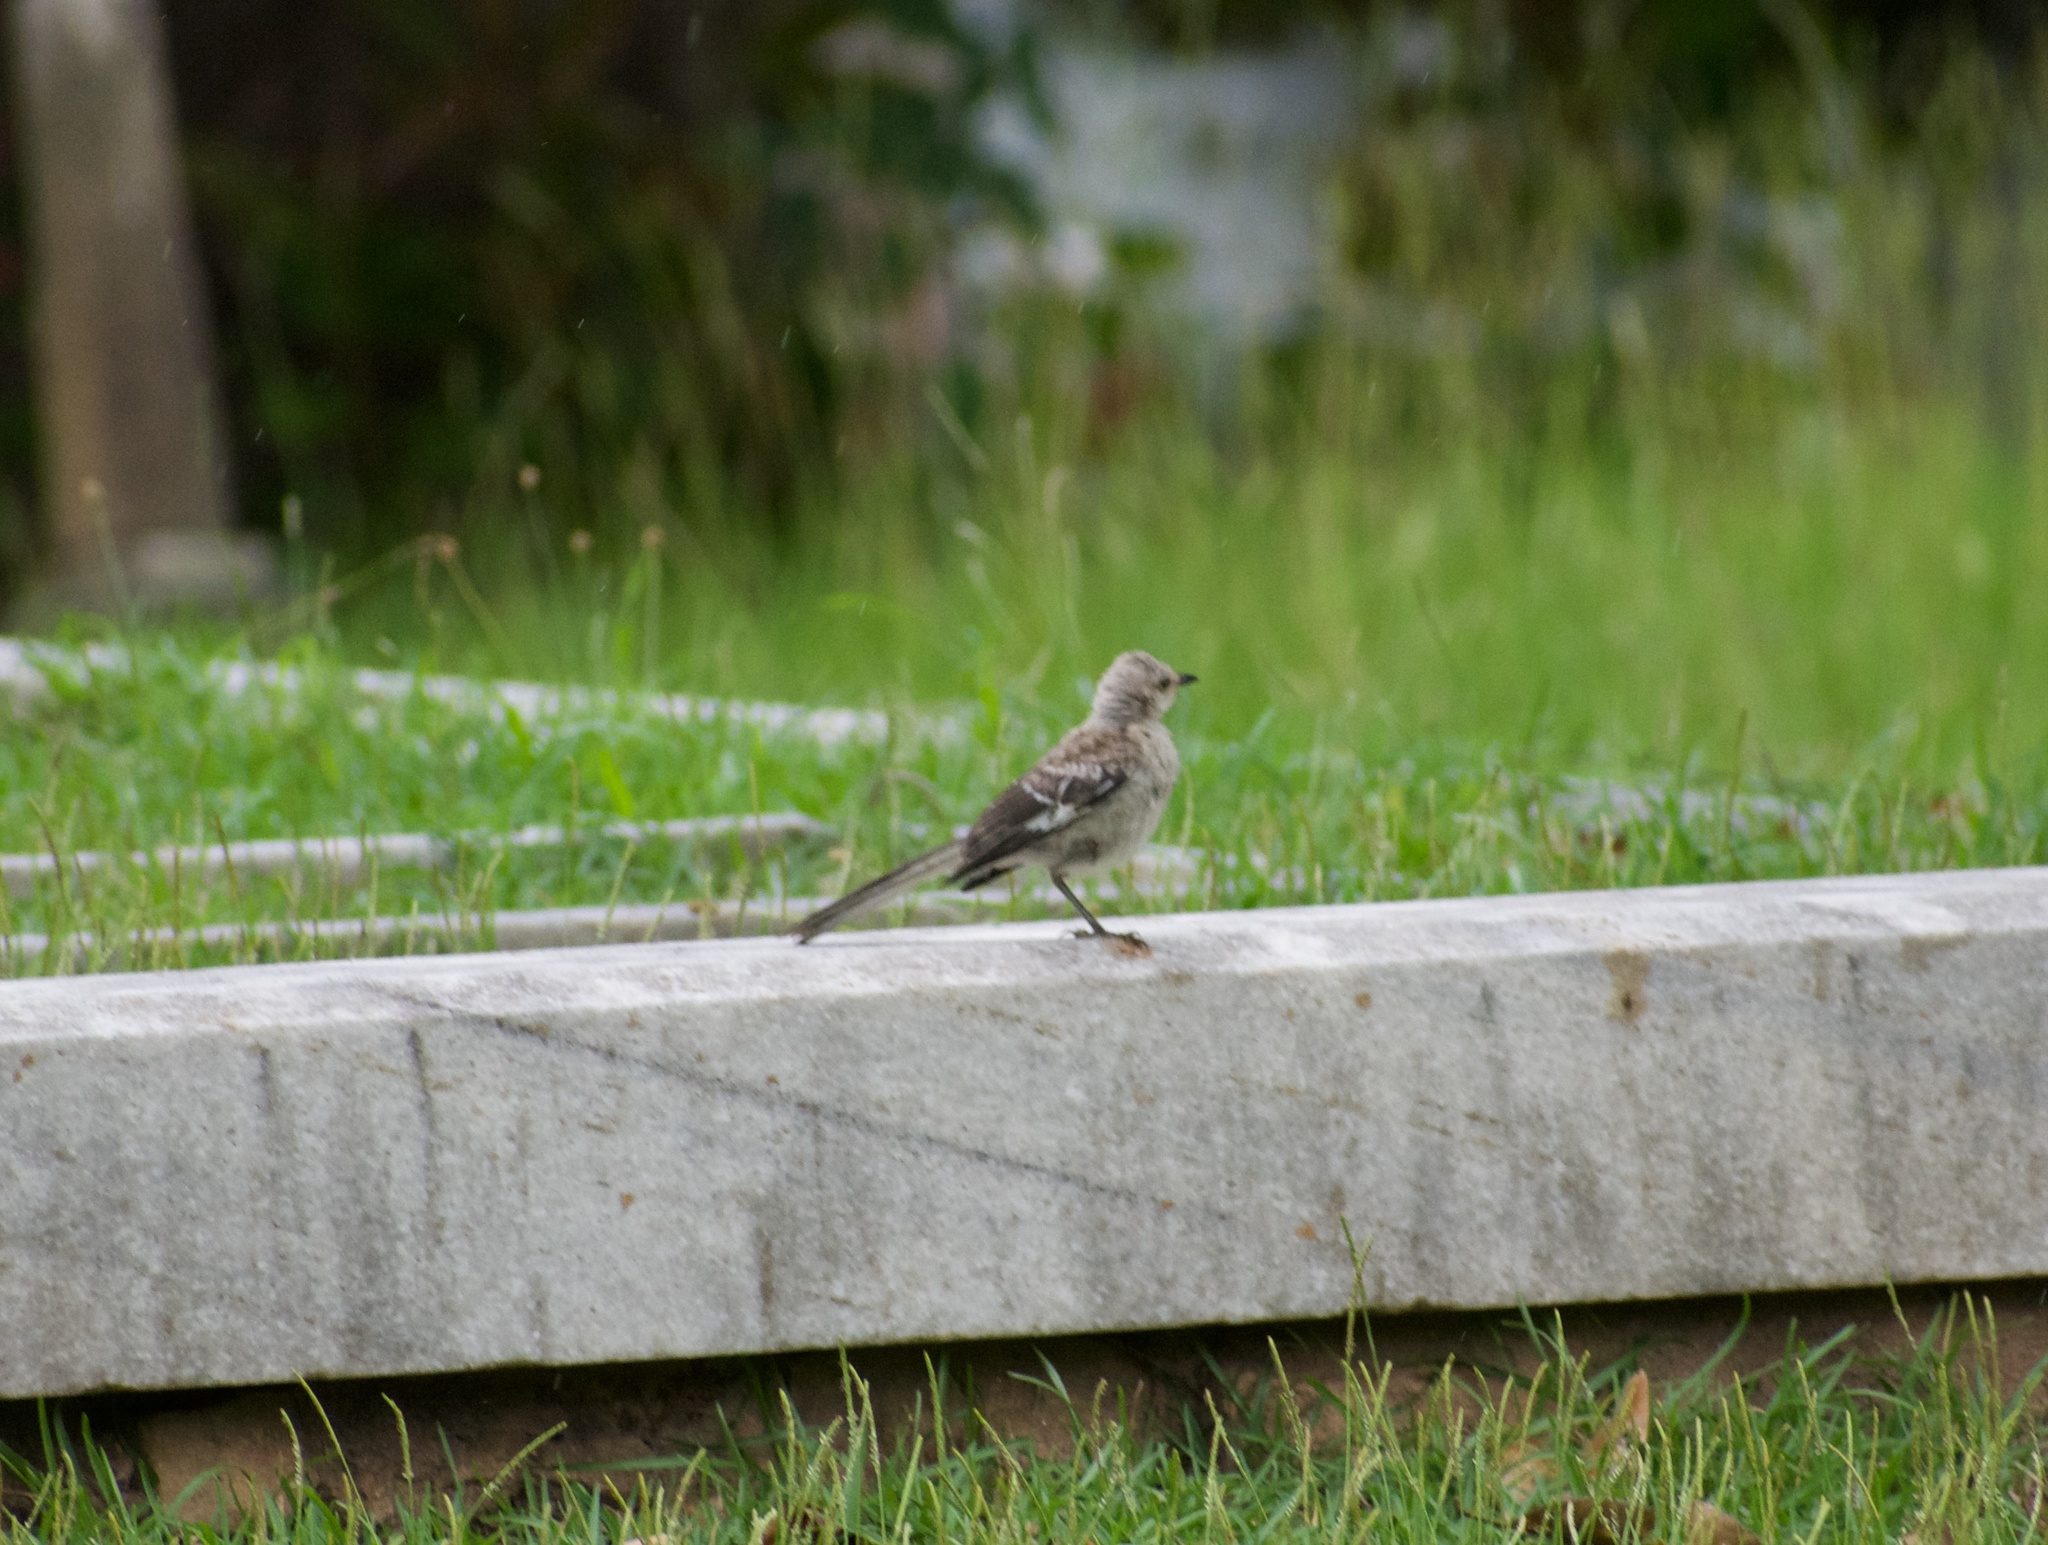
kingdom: Animalia
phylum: Chordata
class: Aves
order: Passeriformes
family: Mimidae
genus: Mimus
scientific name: Mimus polyglottos
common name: Northern mockingbird
